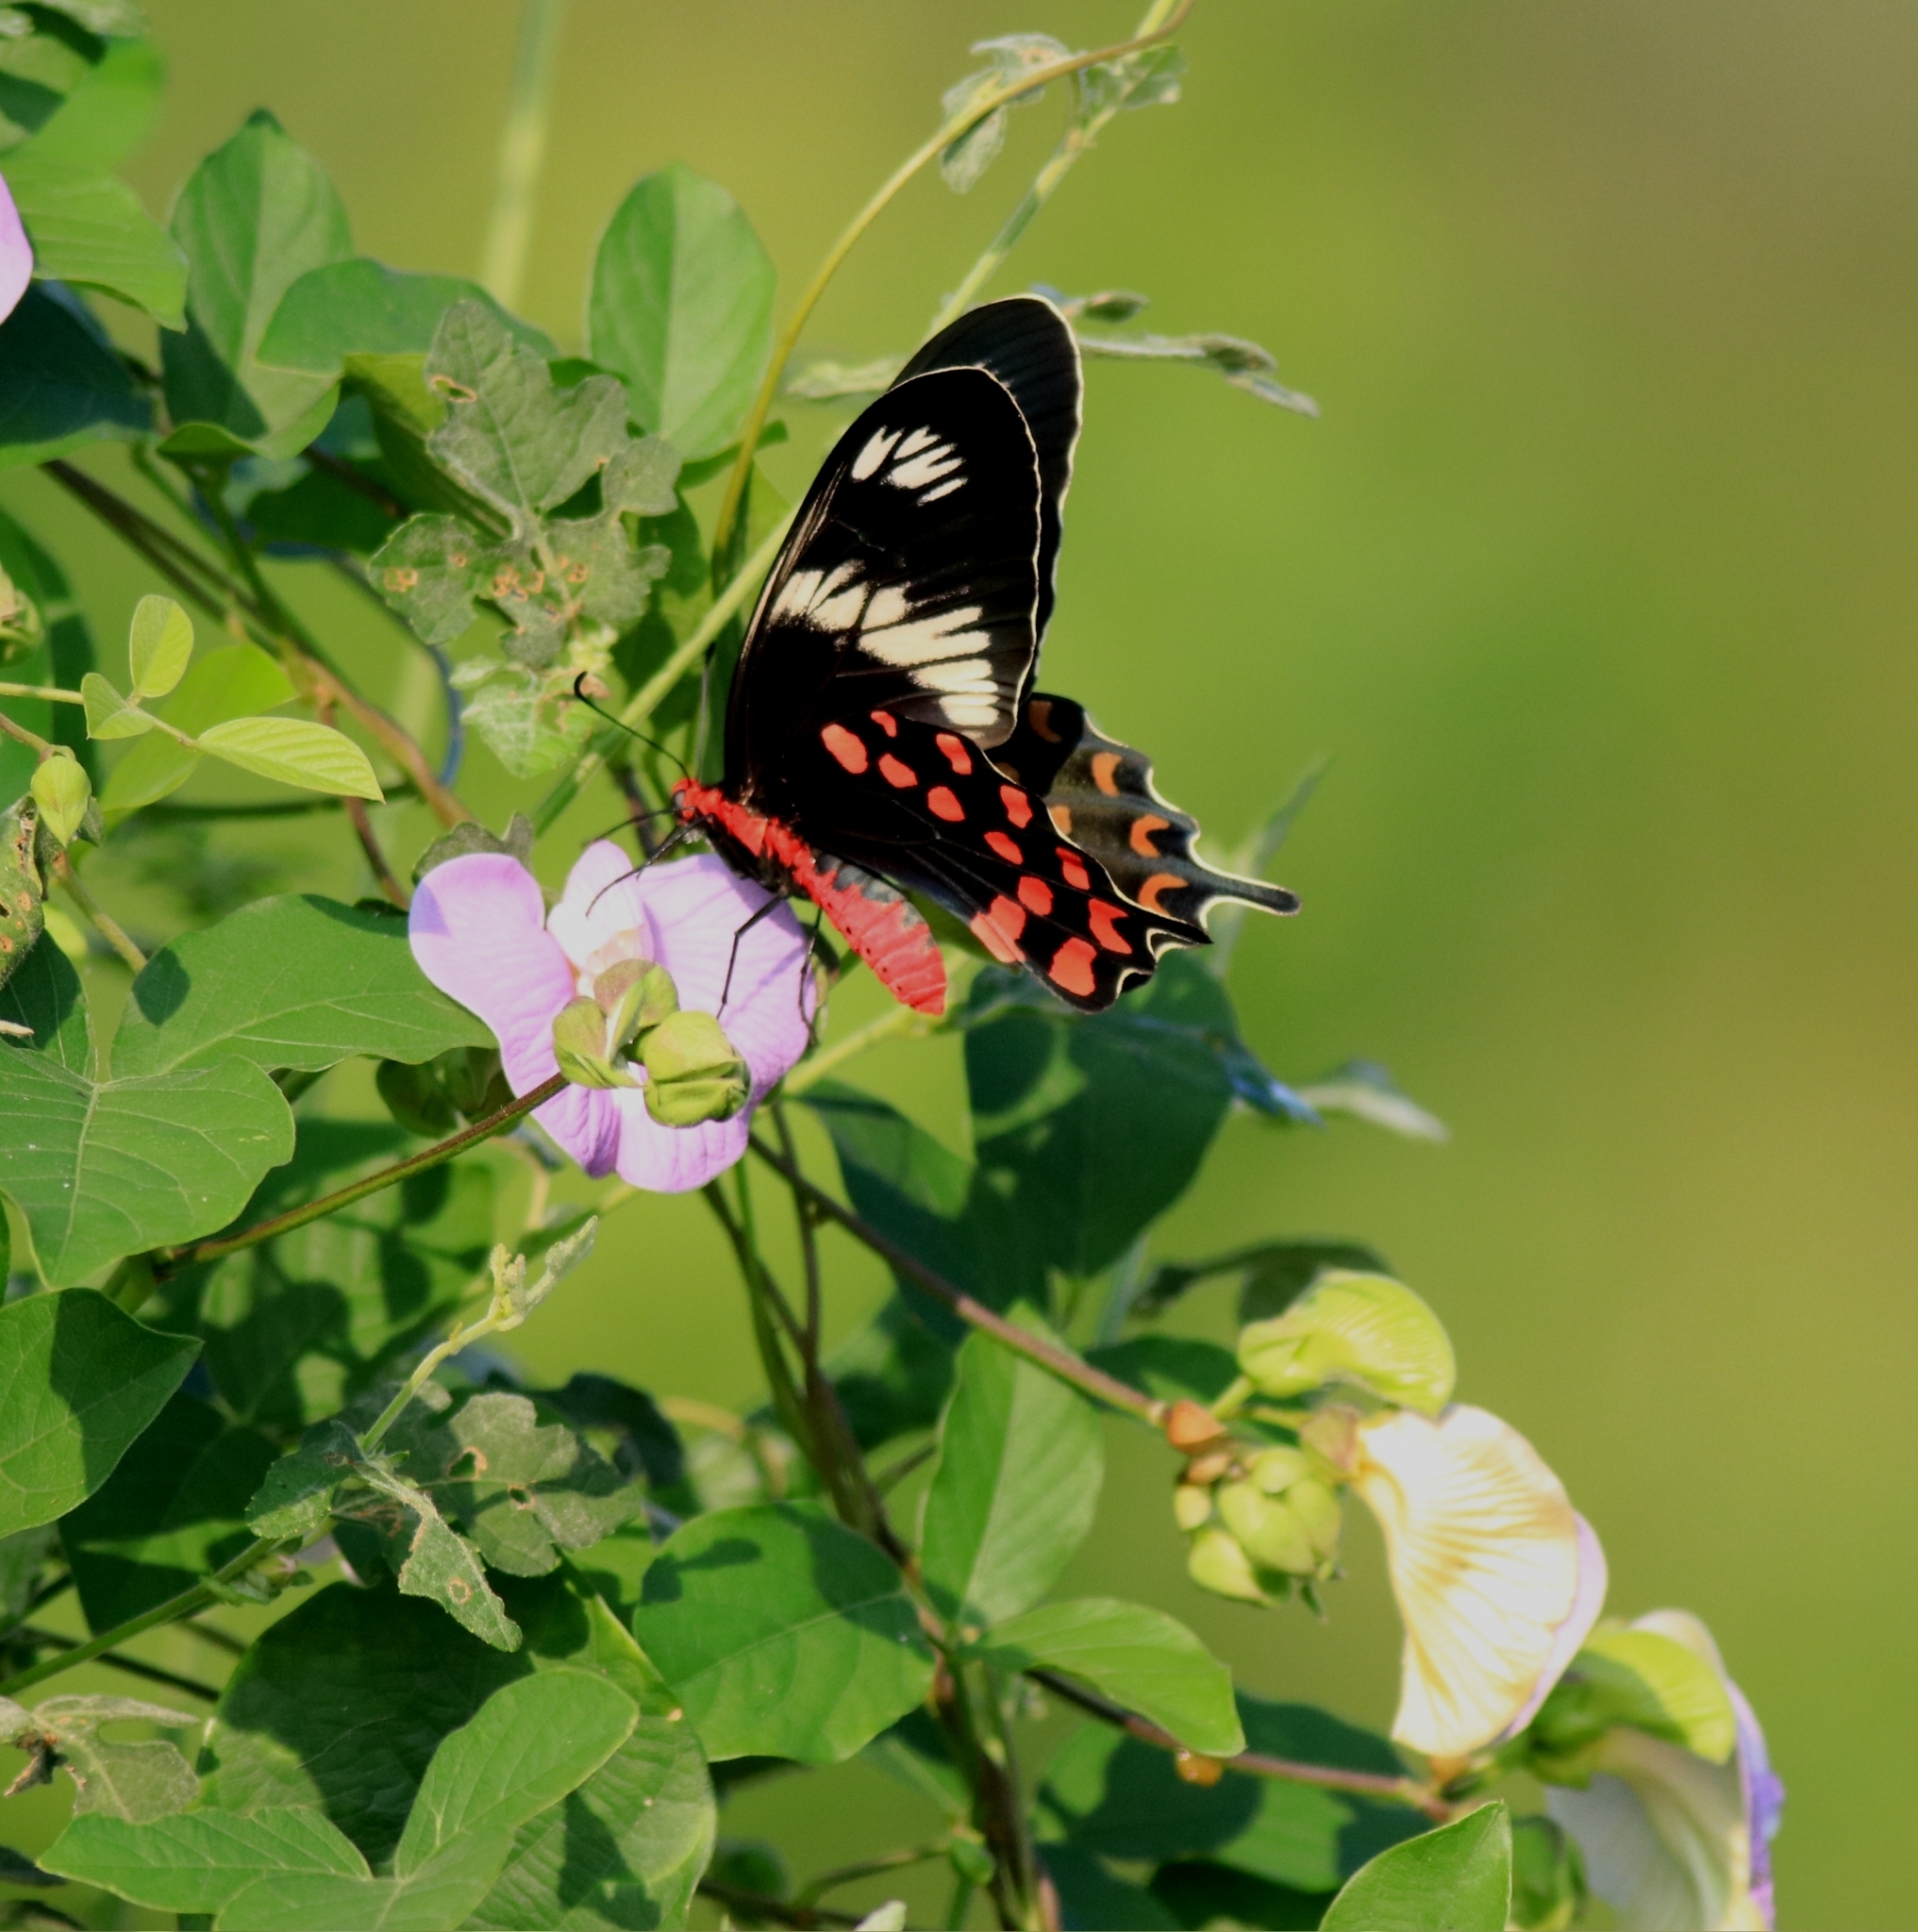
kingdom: Animalia
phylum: Arthropoda
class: Insecta
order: Lepidoptera
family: Papilionidae
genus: Pachliopta
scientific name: Pachliopta hector
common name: Crimson rose
